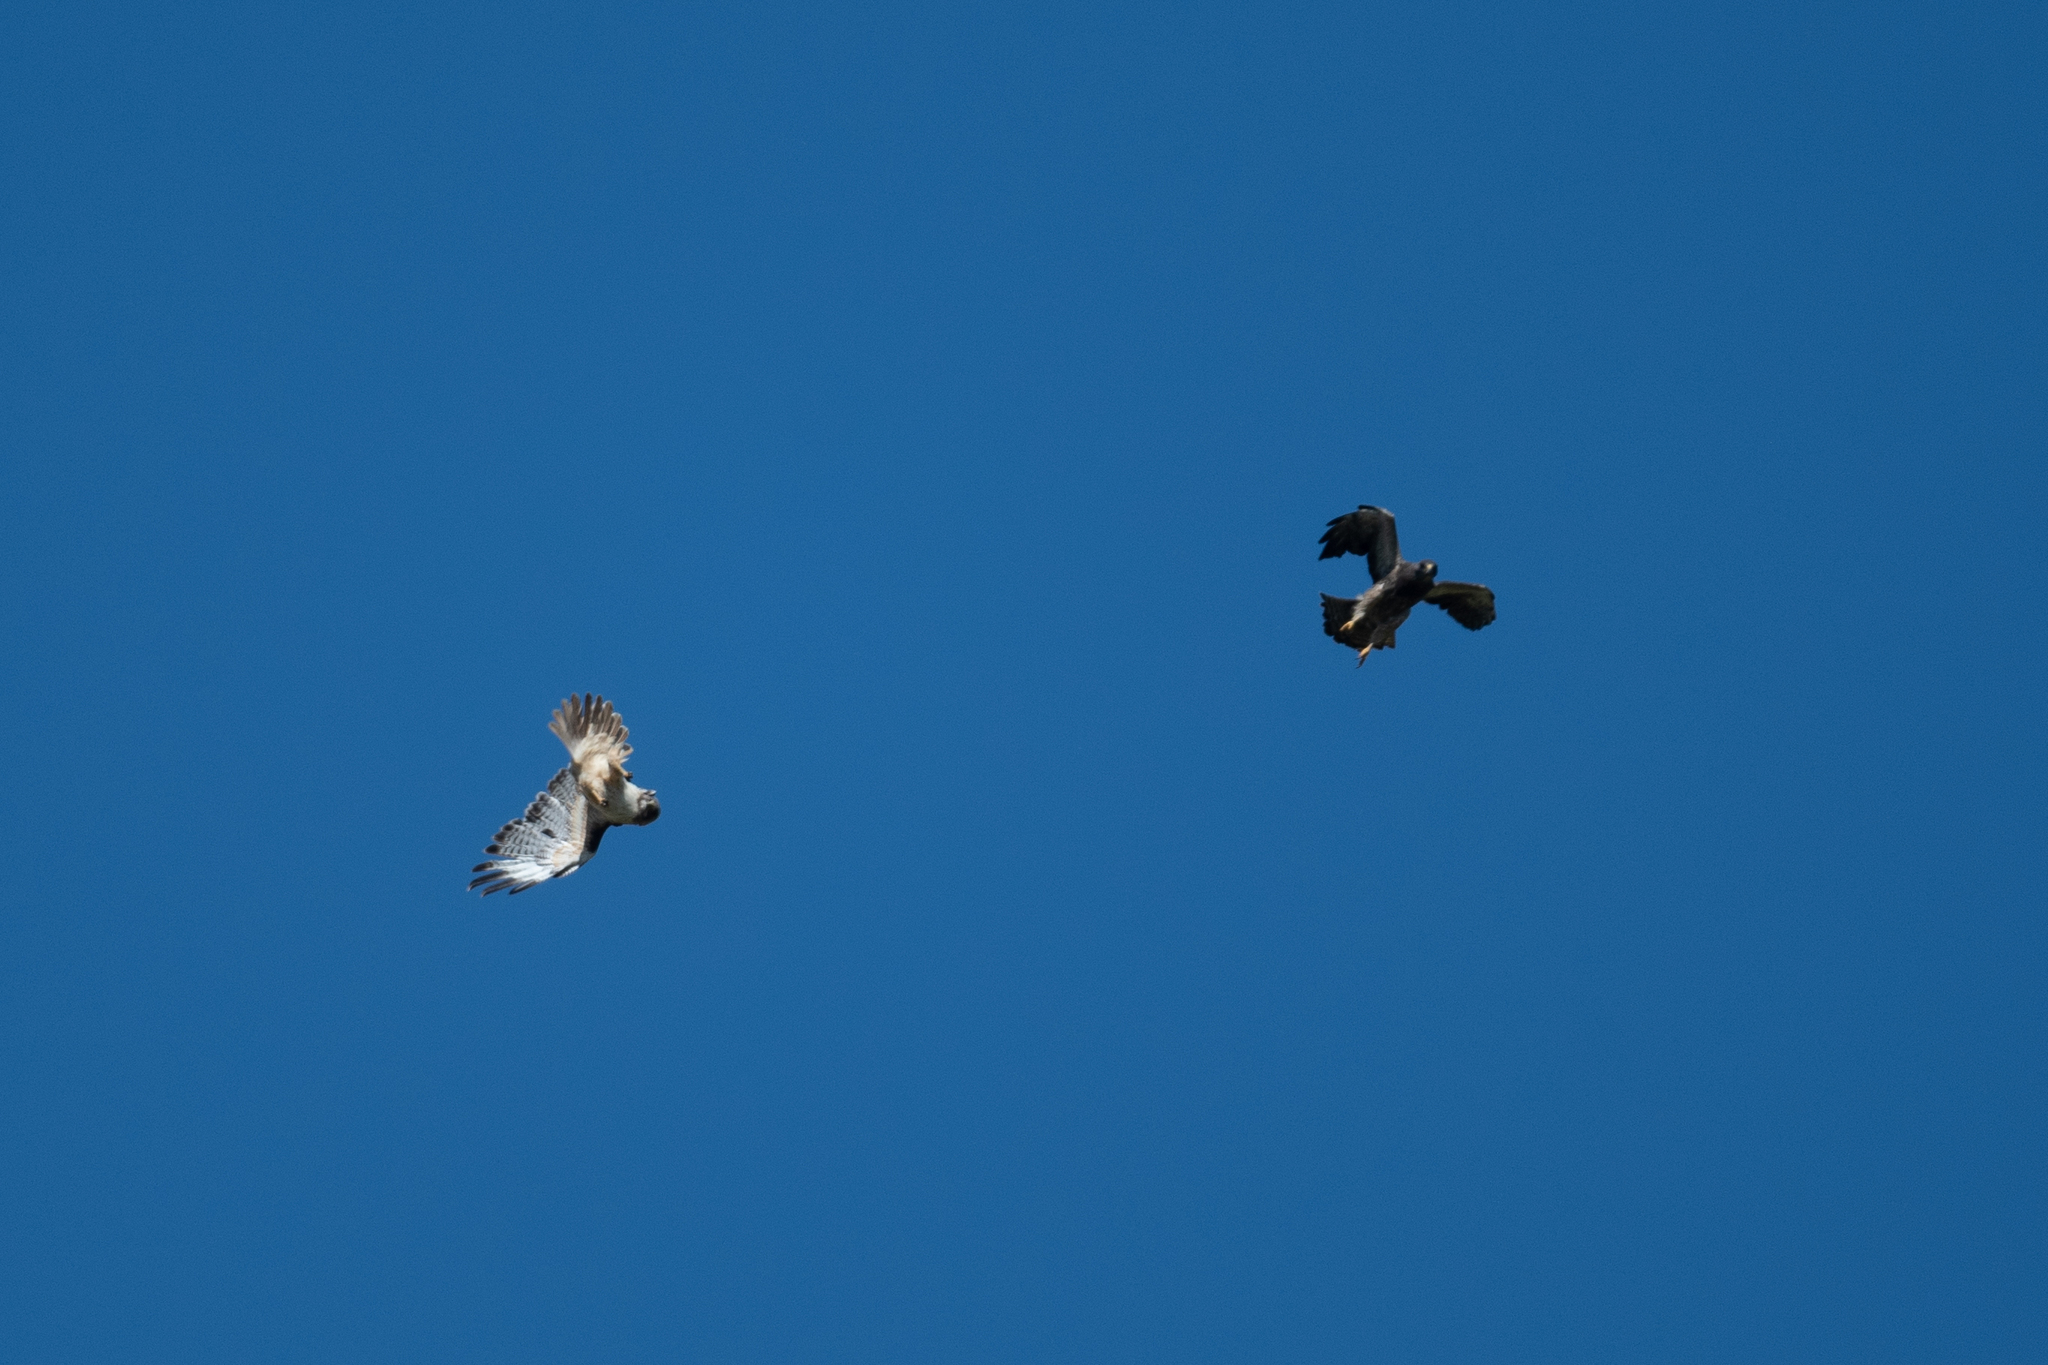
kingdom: Animalia
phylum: Chordata
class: Aves
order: Accipitriformes
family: Accipitridae
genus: Buteo
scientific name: Buteo swainsoni
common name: Swainson's hawk
